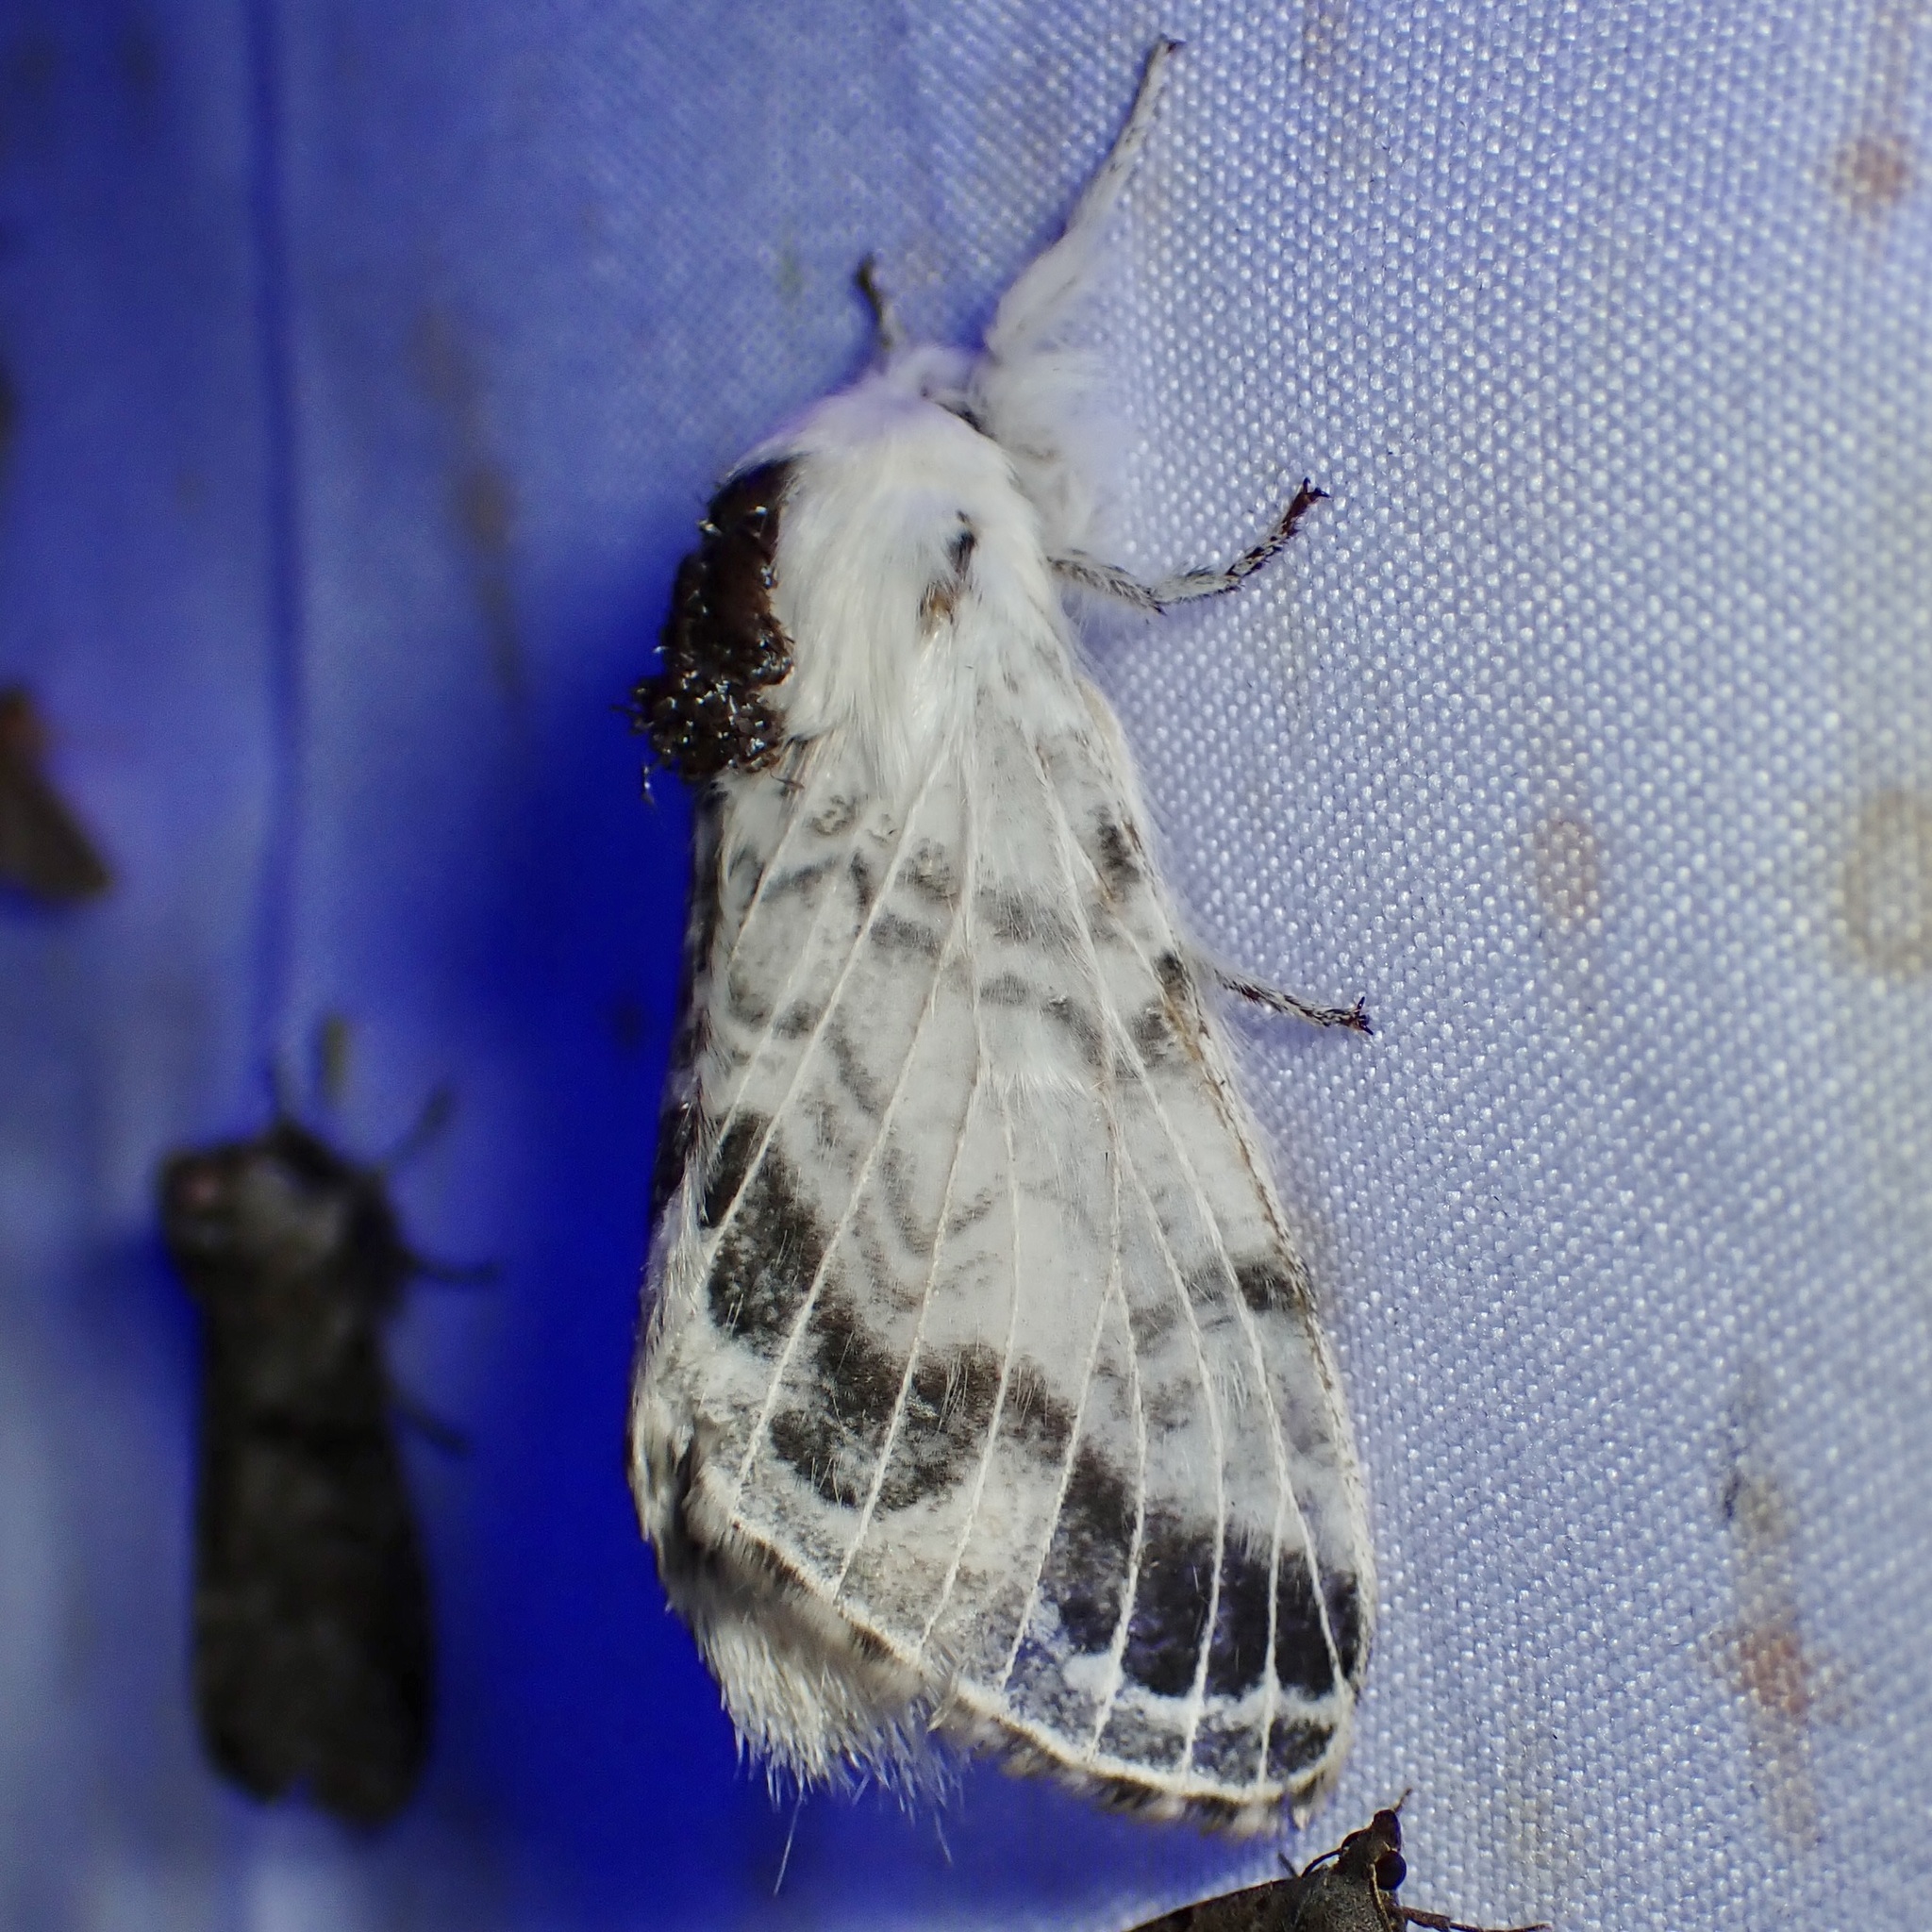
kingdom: Animalia
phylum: Arthropoda
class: Insecta
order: Lepidoptera
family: Lasiocampidae
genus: Tolype
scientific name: Tolype austella
